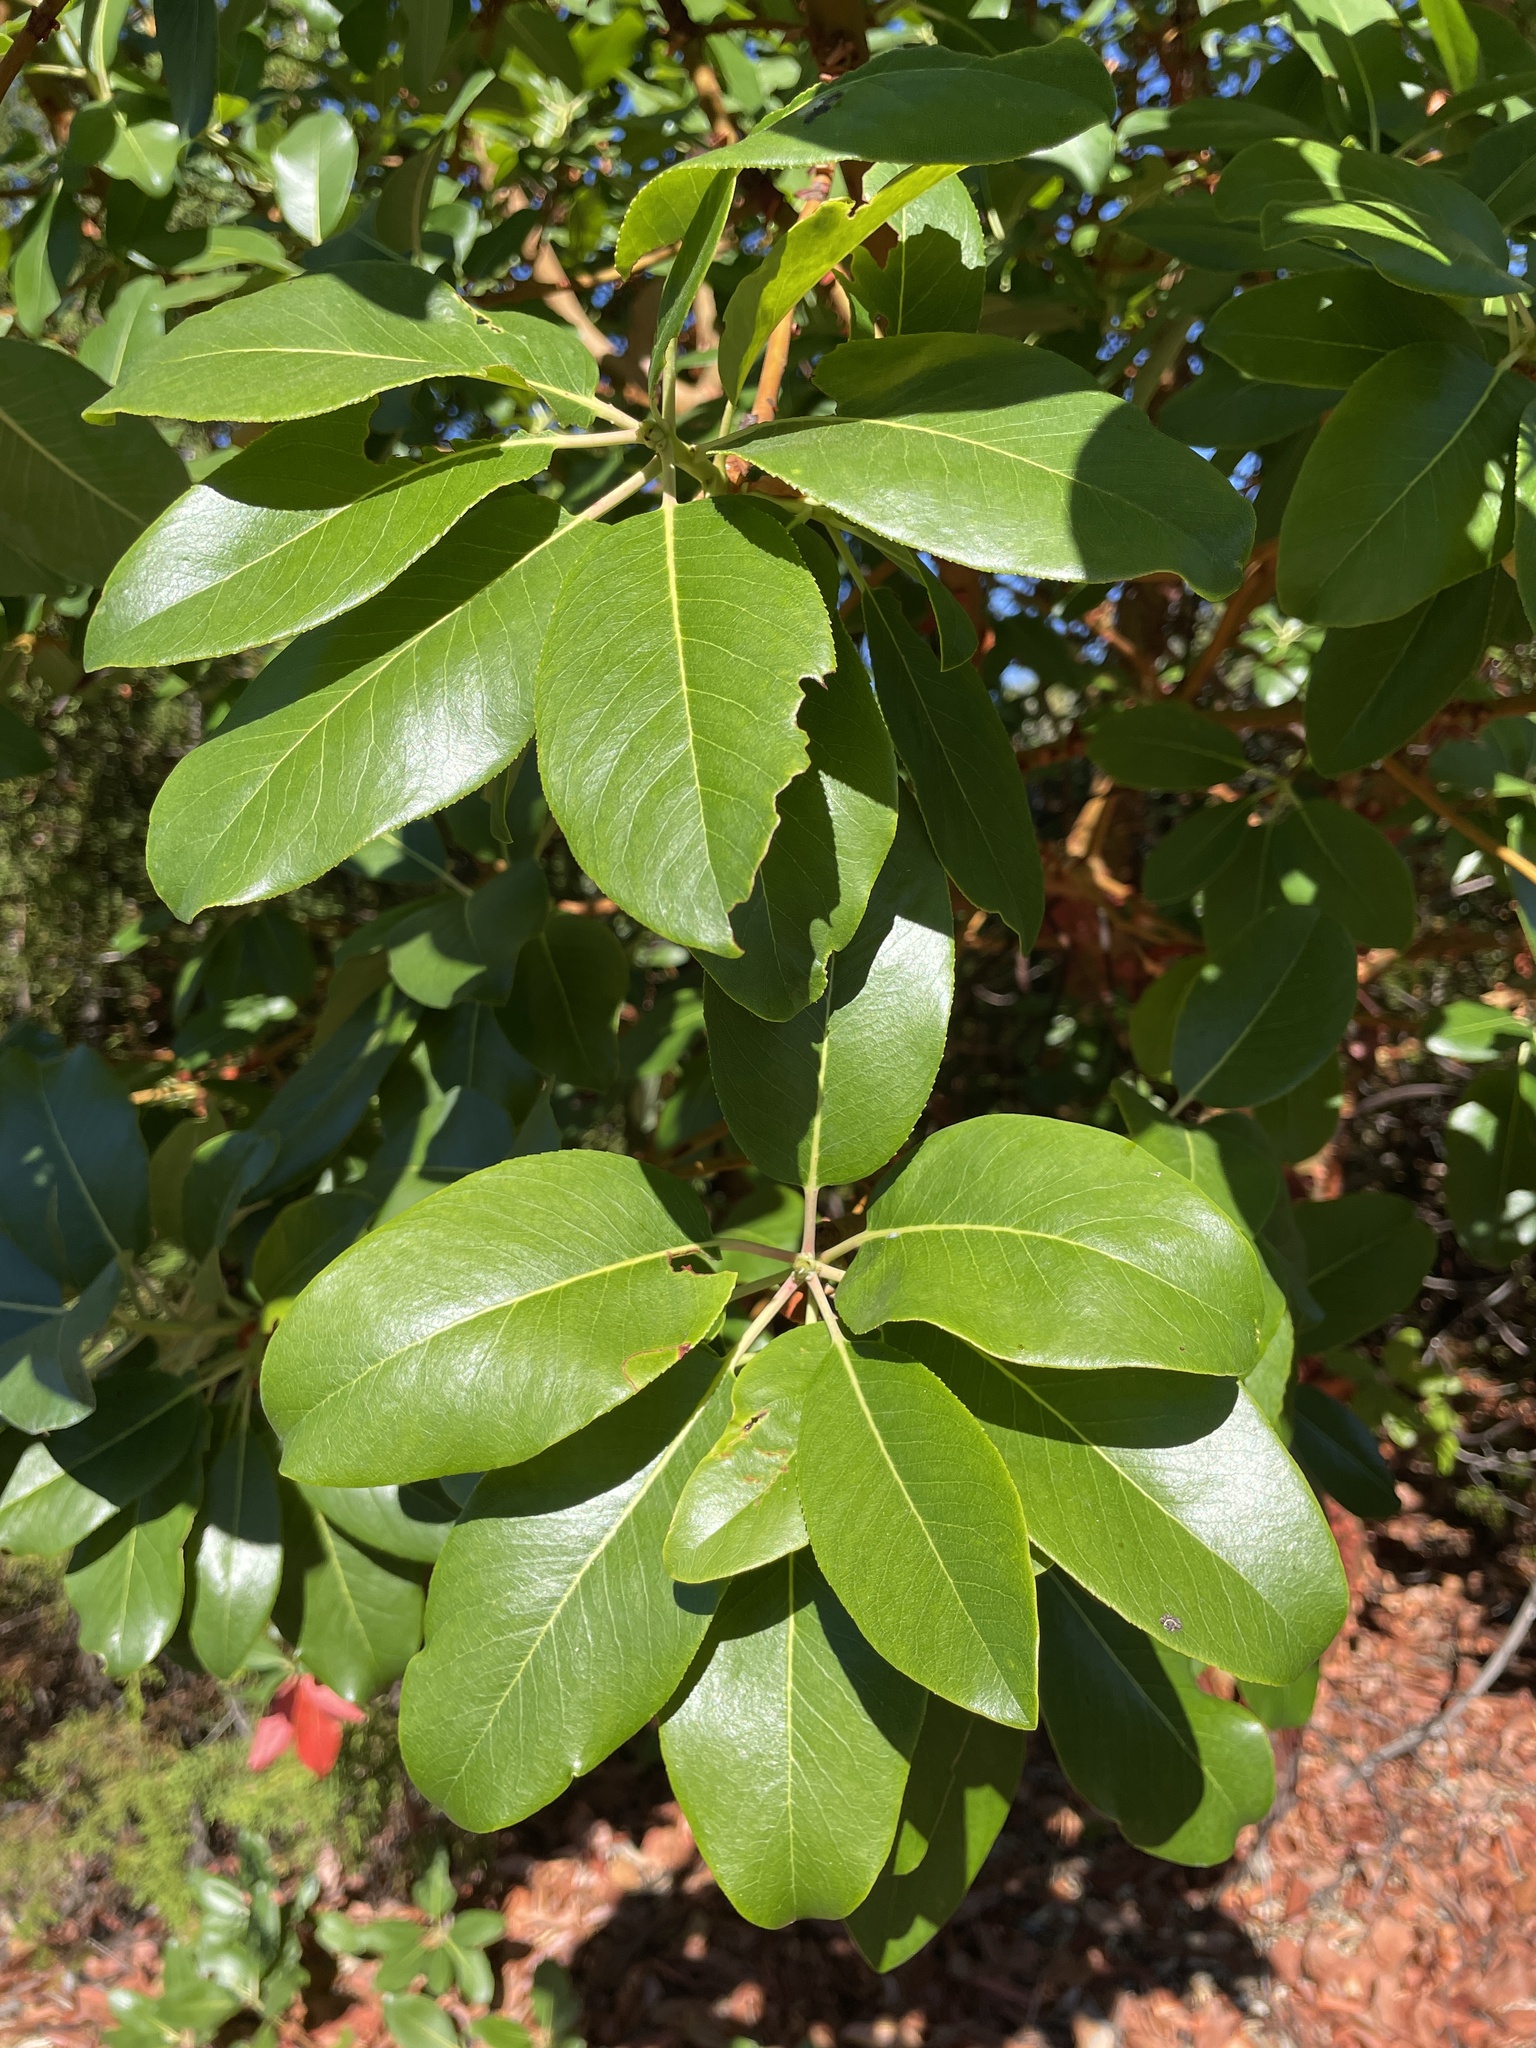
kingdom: Plantae
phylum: Tracheophyta
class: Magnoliopsida
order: Ericales
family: Ericaceae
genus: Arbutus
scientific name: Arbutus menziesii
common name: Pacific madrone
